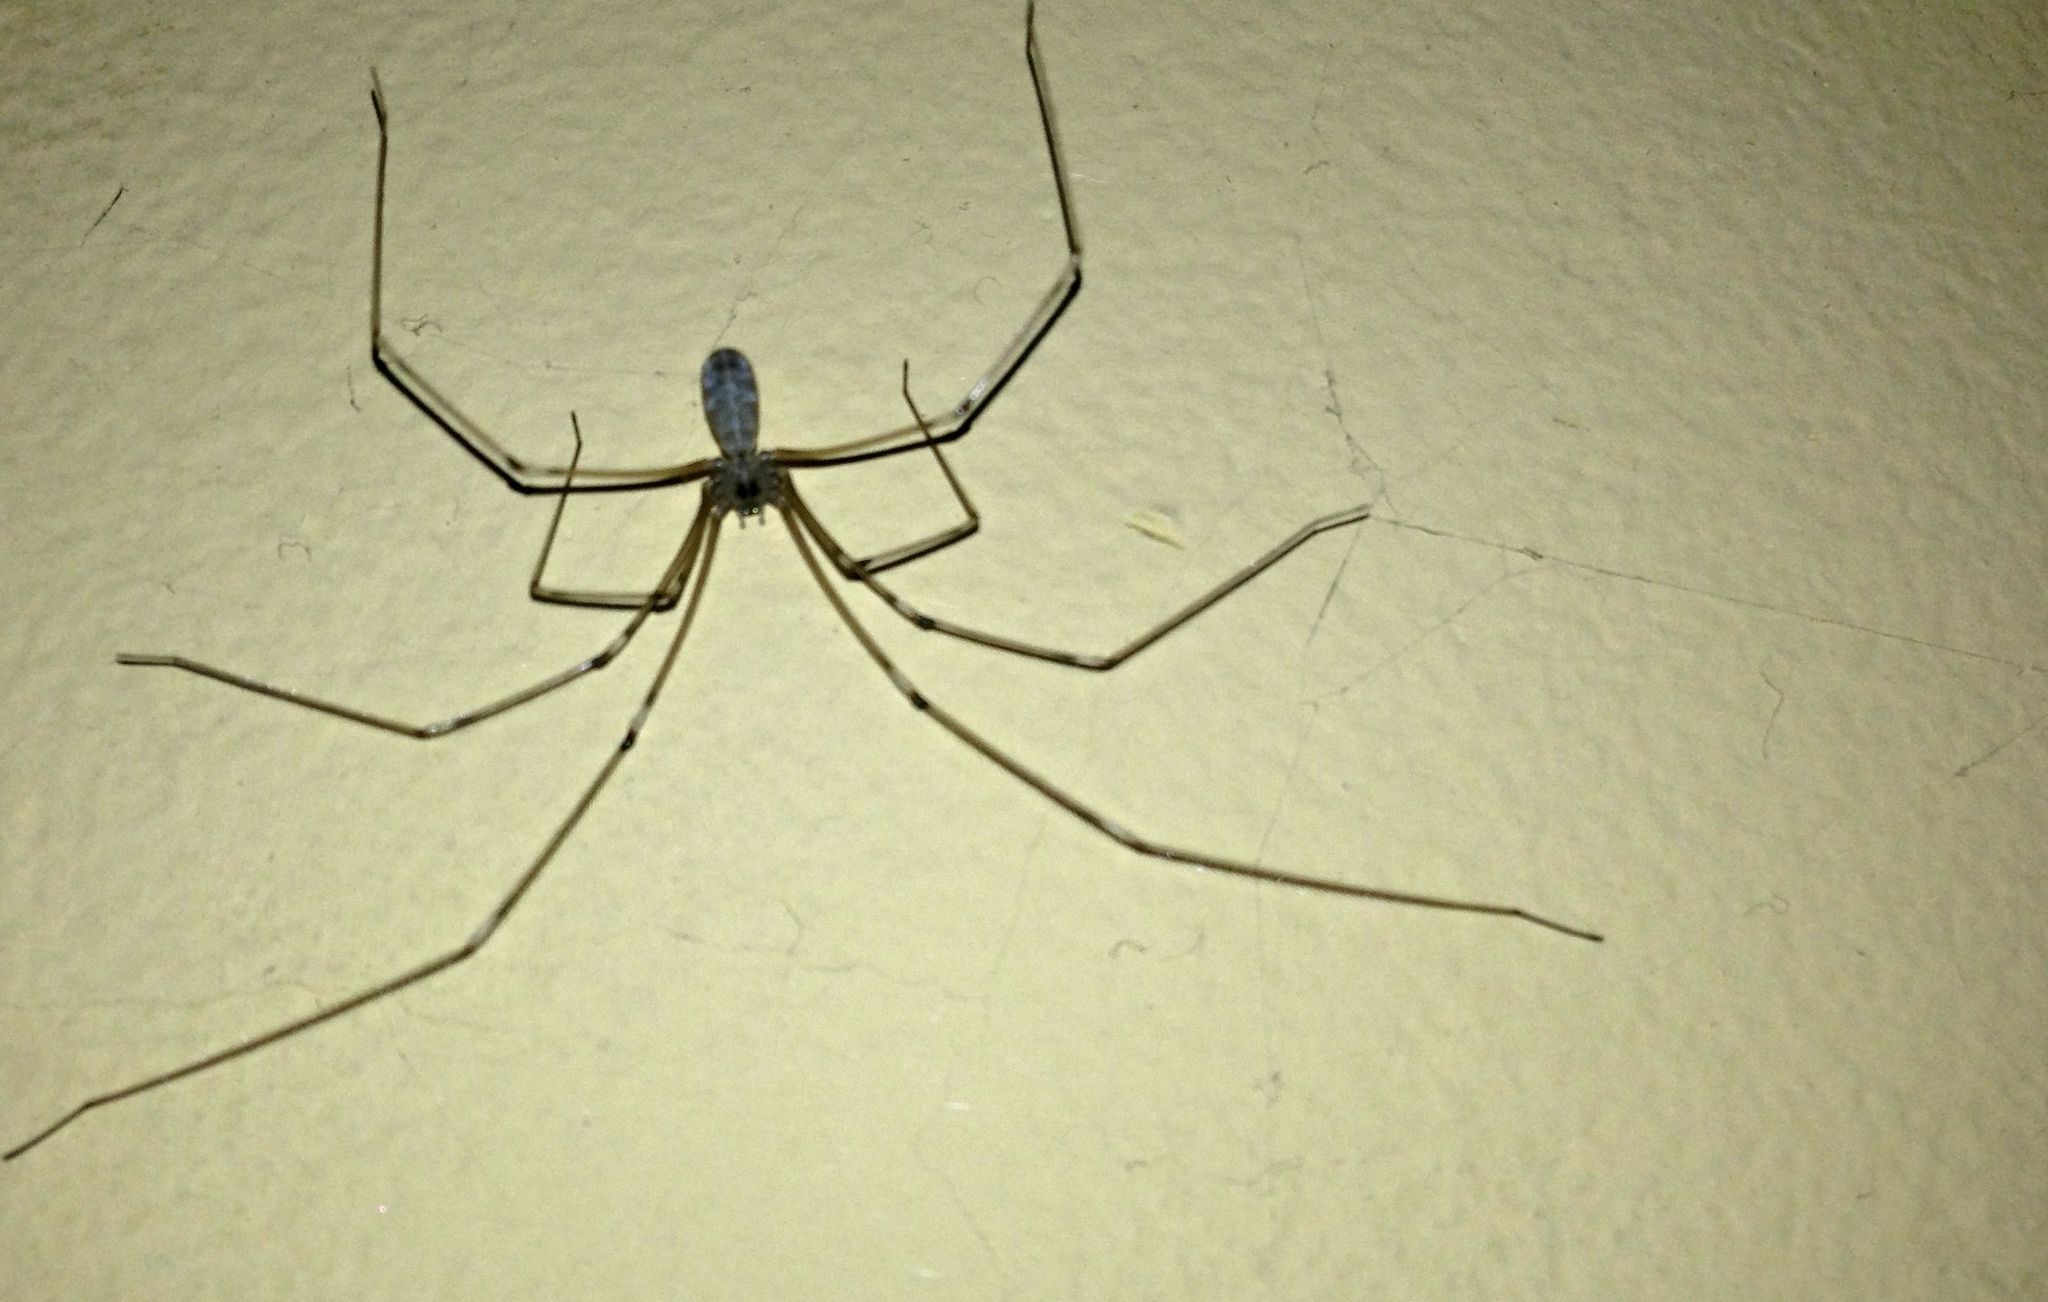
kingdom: Animalia
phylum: Arthropoda
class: Arachnida
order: Araneae
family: Pholcidae
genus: Pholcus
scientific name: Pholcus phalangioides
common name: Longbodied cellar spider
